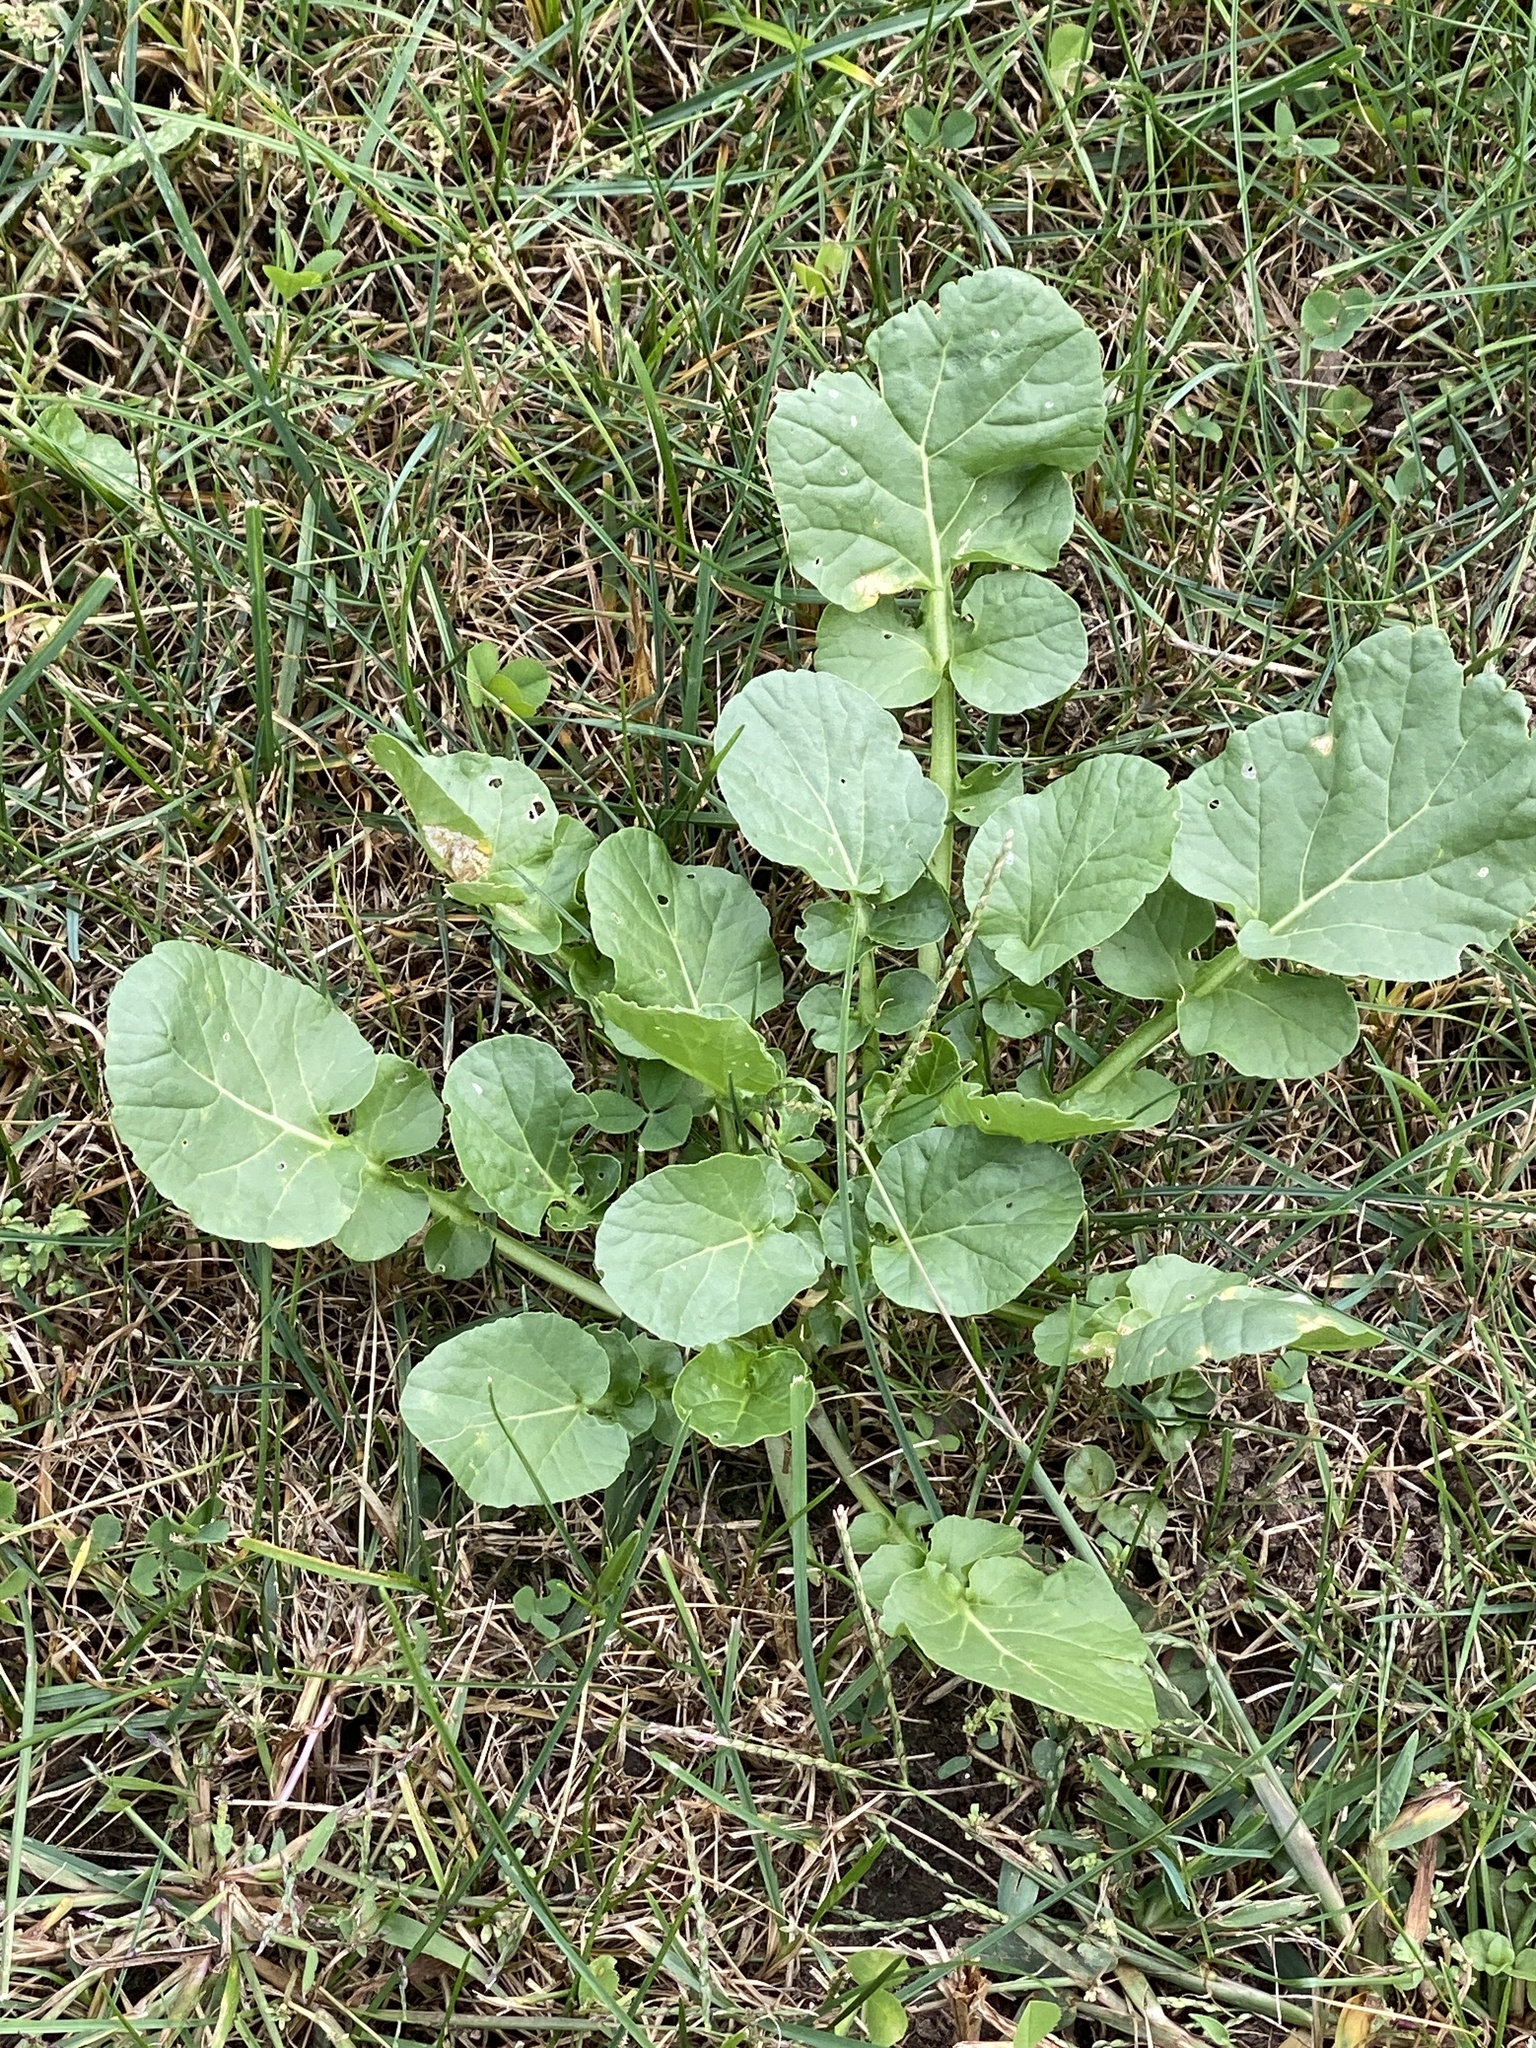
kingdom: Plantae
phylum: Tracheophyta
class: Magnoliopsida
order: Brassicales
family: Brassicaceae
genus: Barbarea
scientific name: Barbarea vulgaris
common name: Cressy-greens
